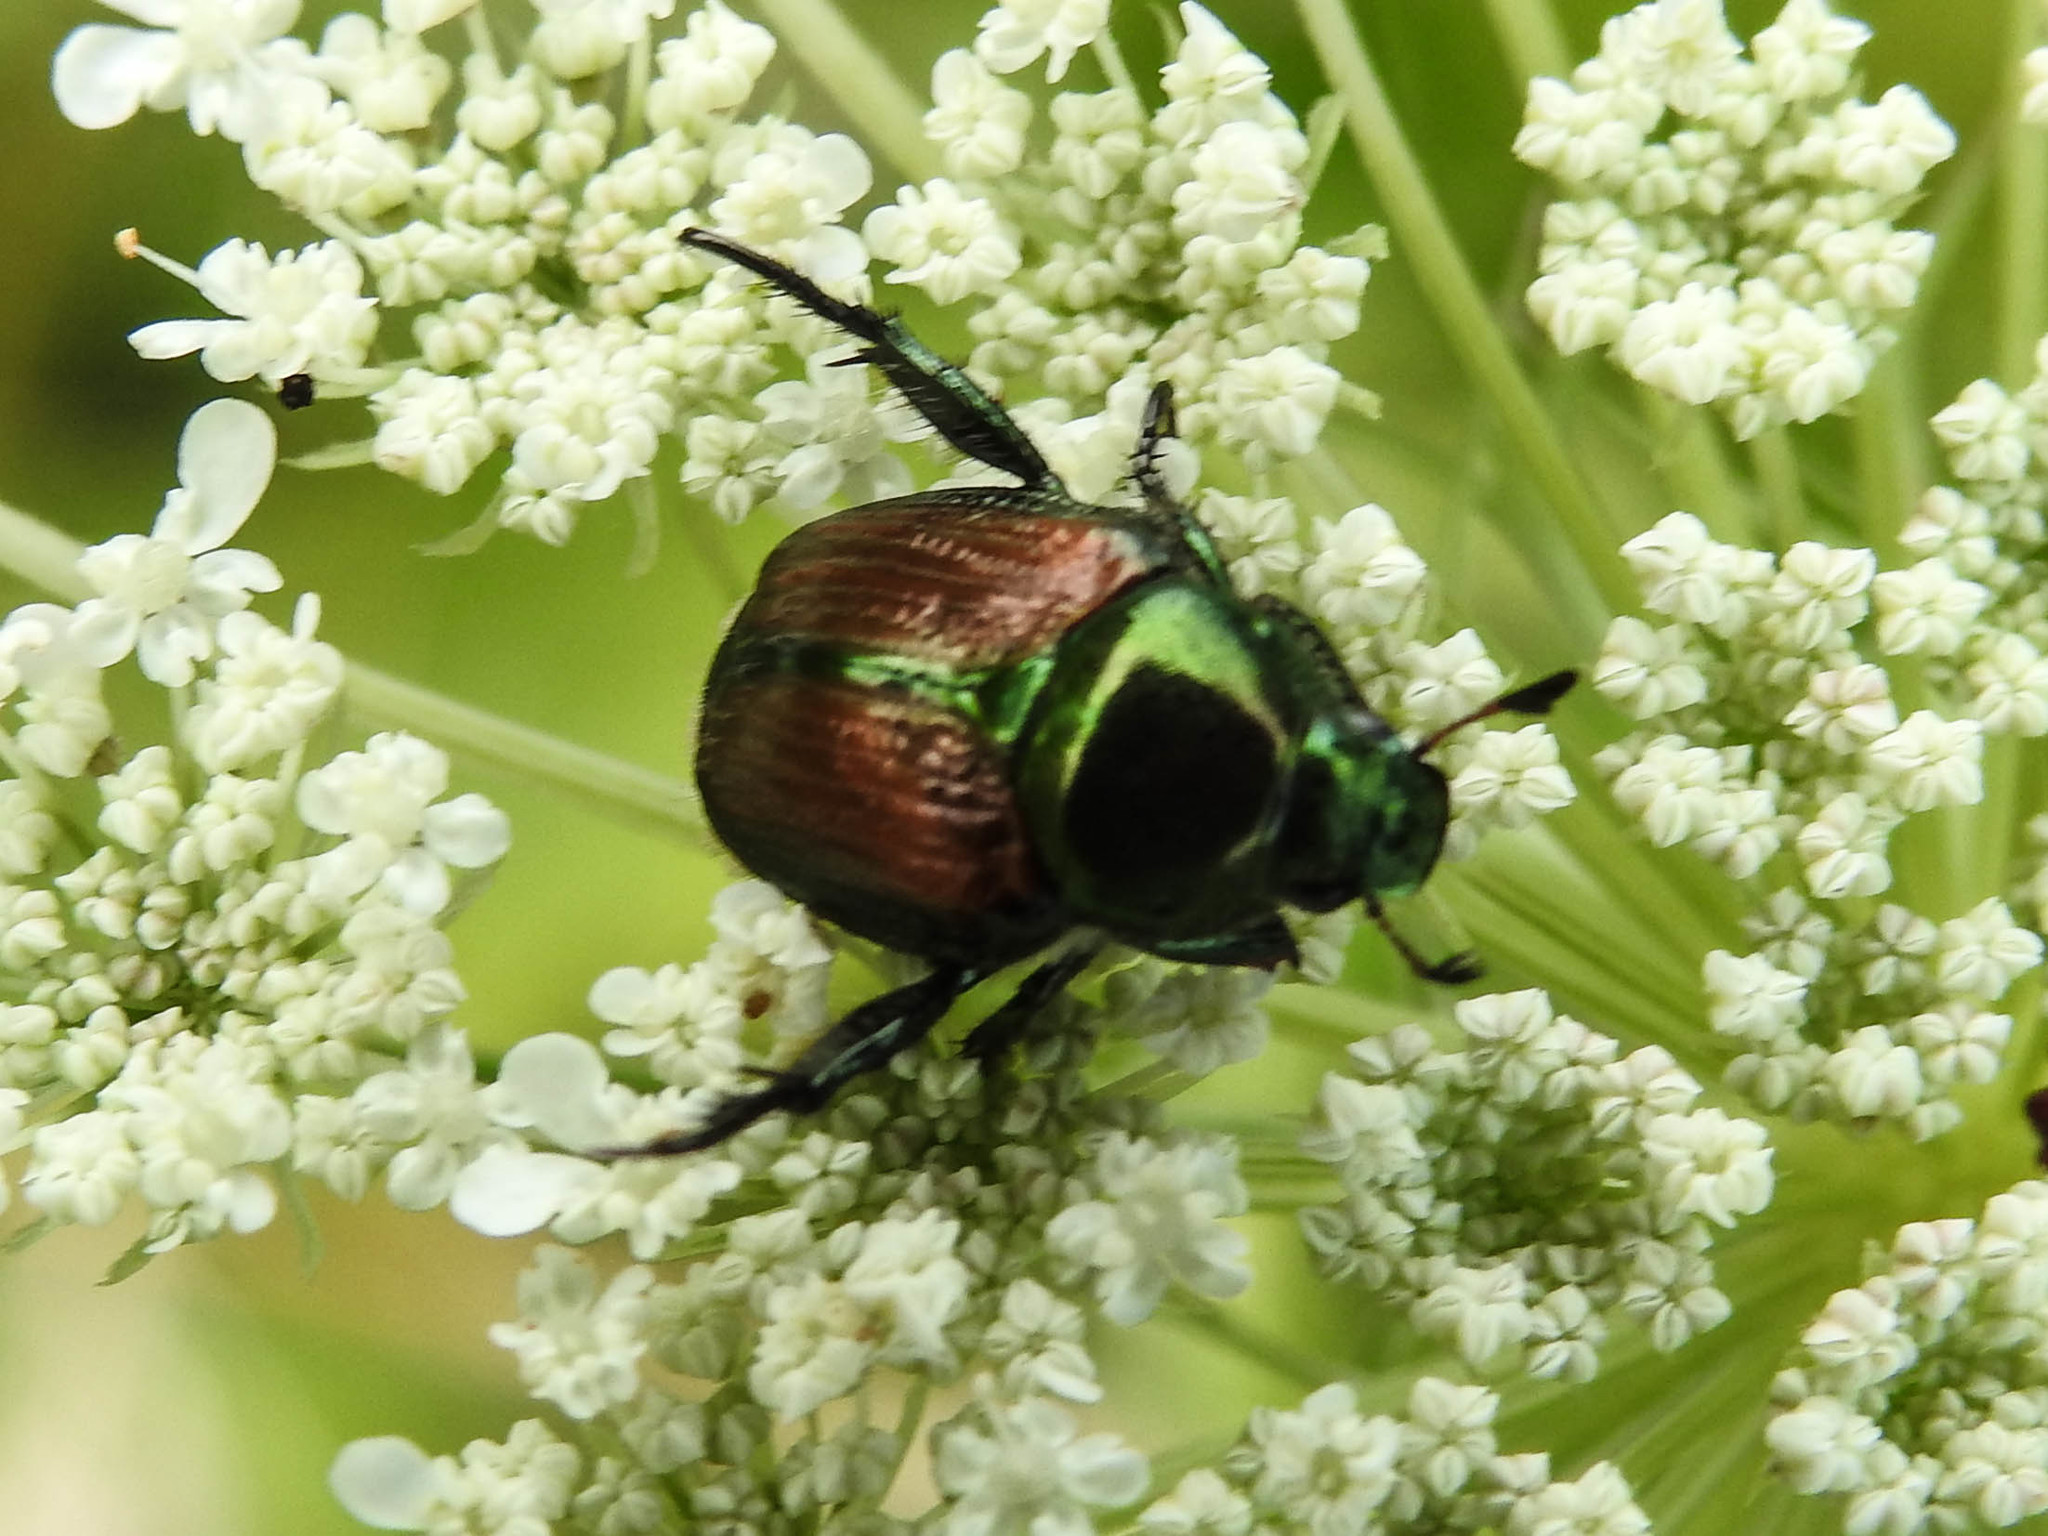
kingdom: Animalia
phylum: Arthropoda
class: Insecta
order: Coleoptera
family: Scarabaeidae
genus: Popillia
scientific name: Popillia japonica
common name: Japanese beetle
